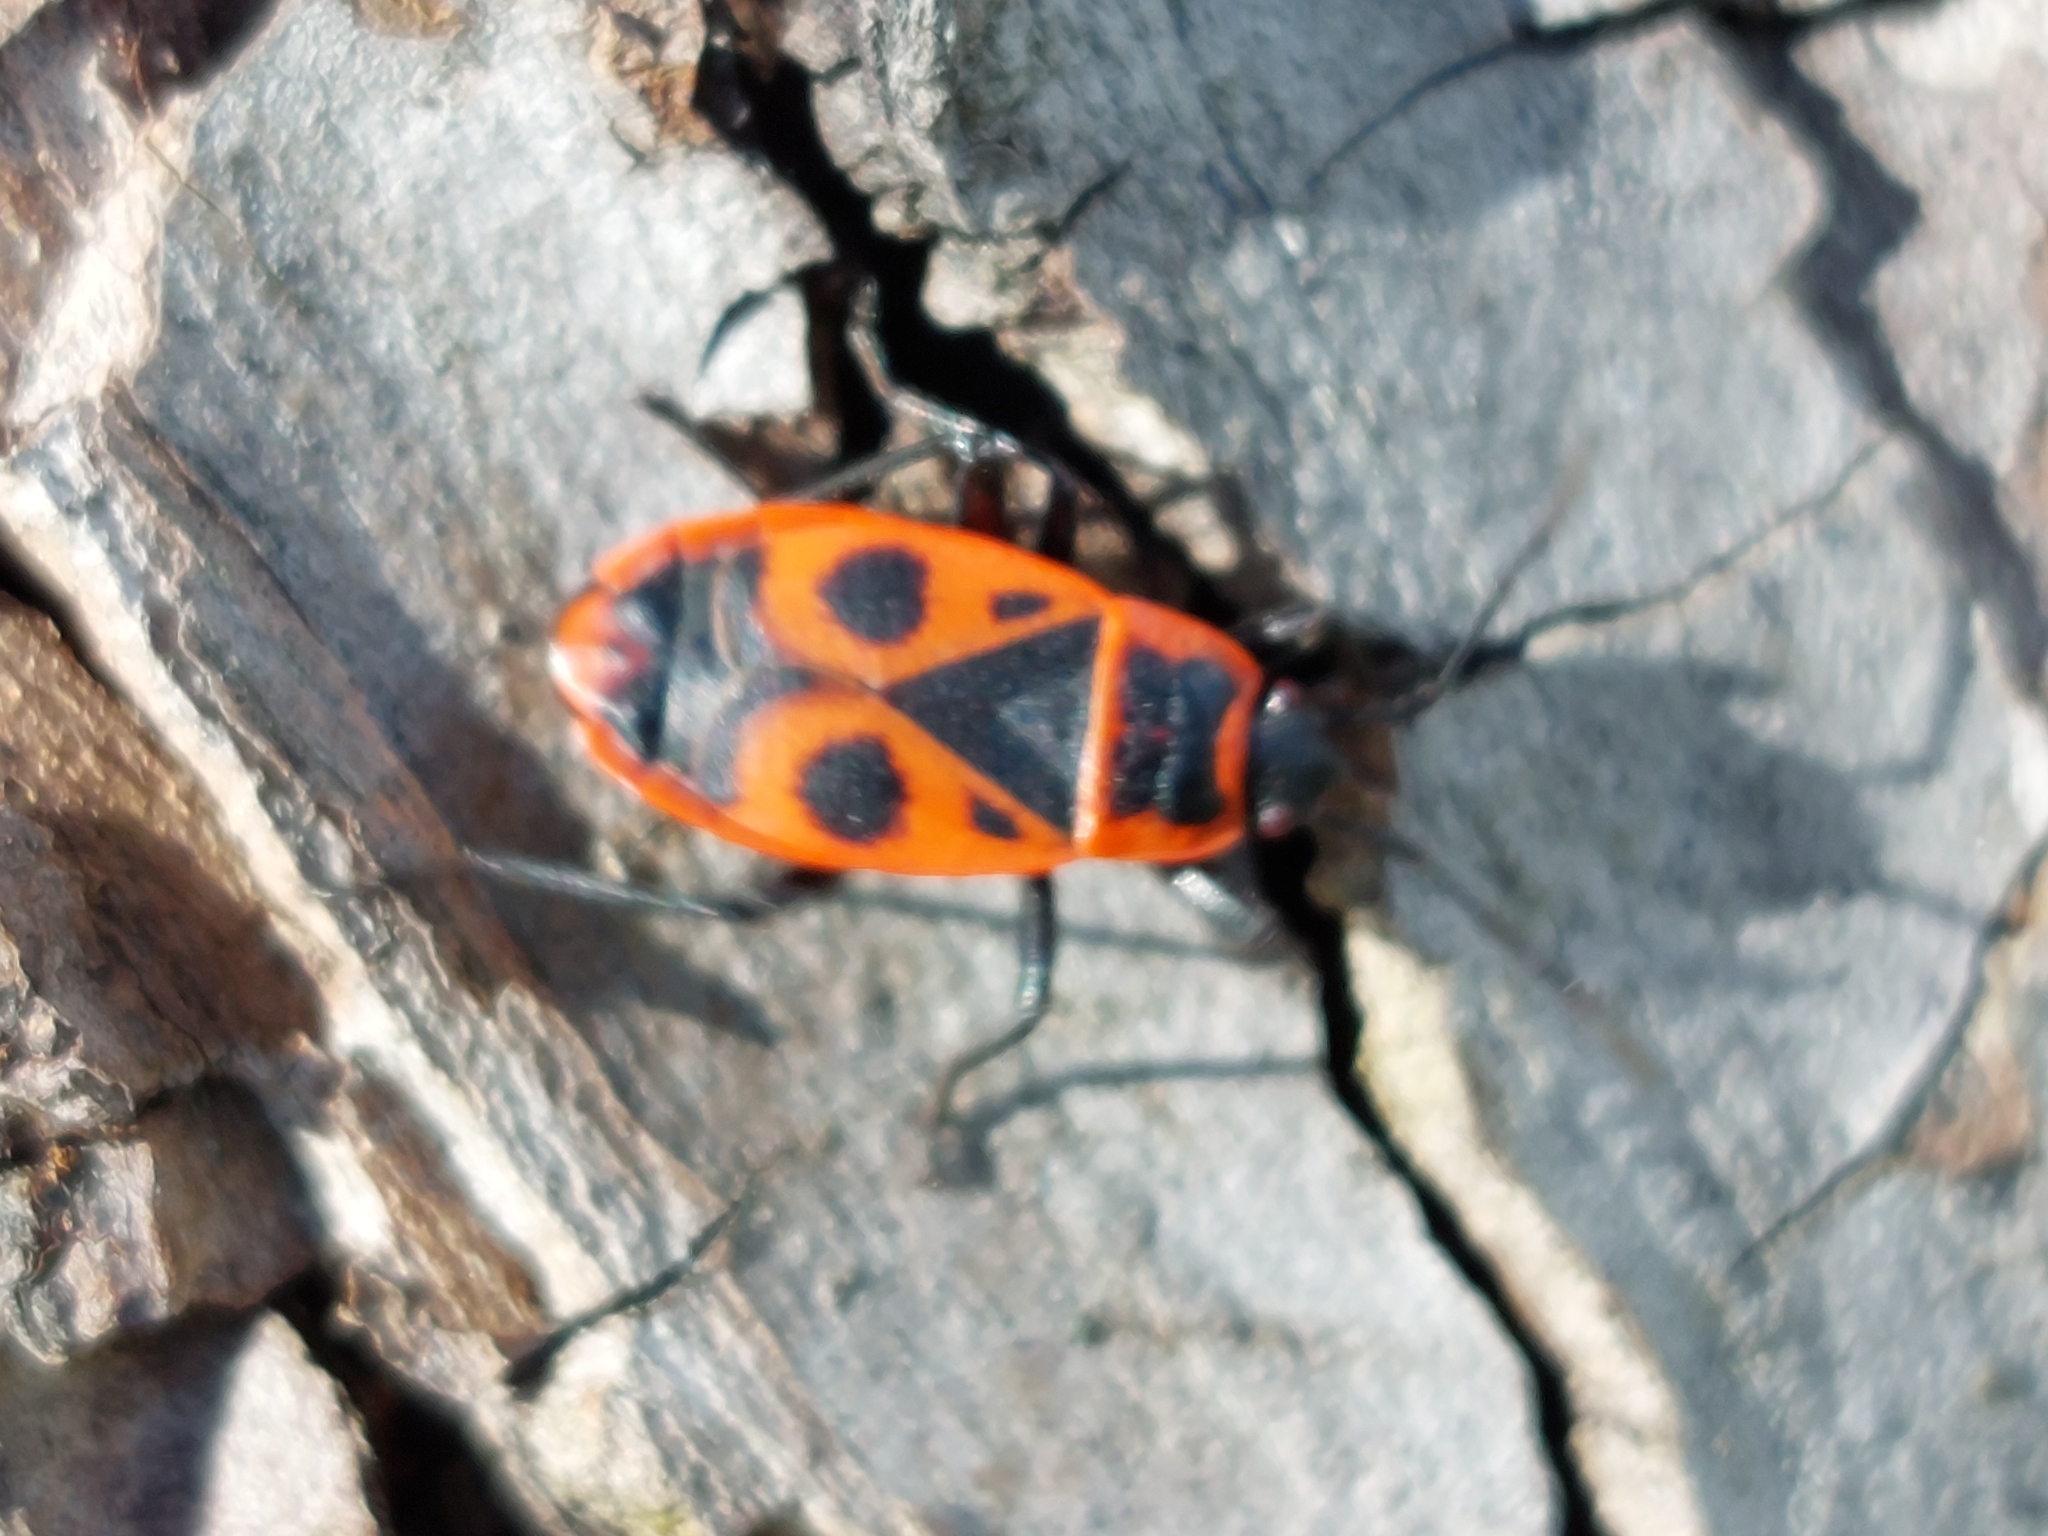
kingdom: Animalia
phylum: Arthropoda
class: Insecta
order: Hemiptera
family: Pyrrhocoridae
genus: Pyrrhocoris
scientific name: Pyrrhocoris apterus
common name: Firebug
